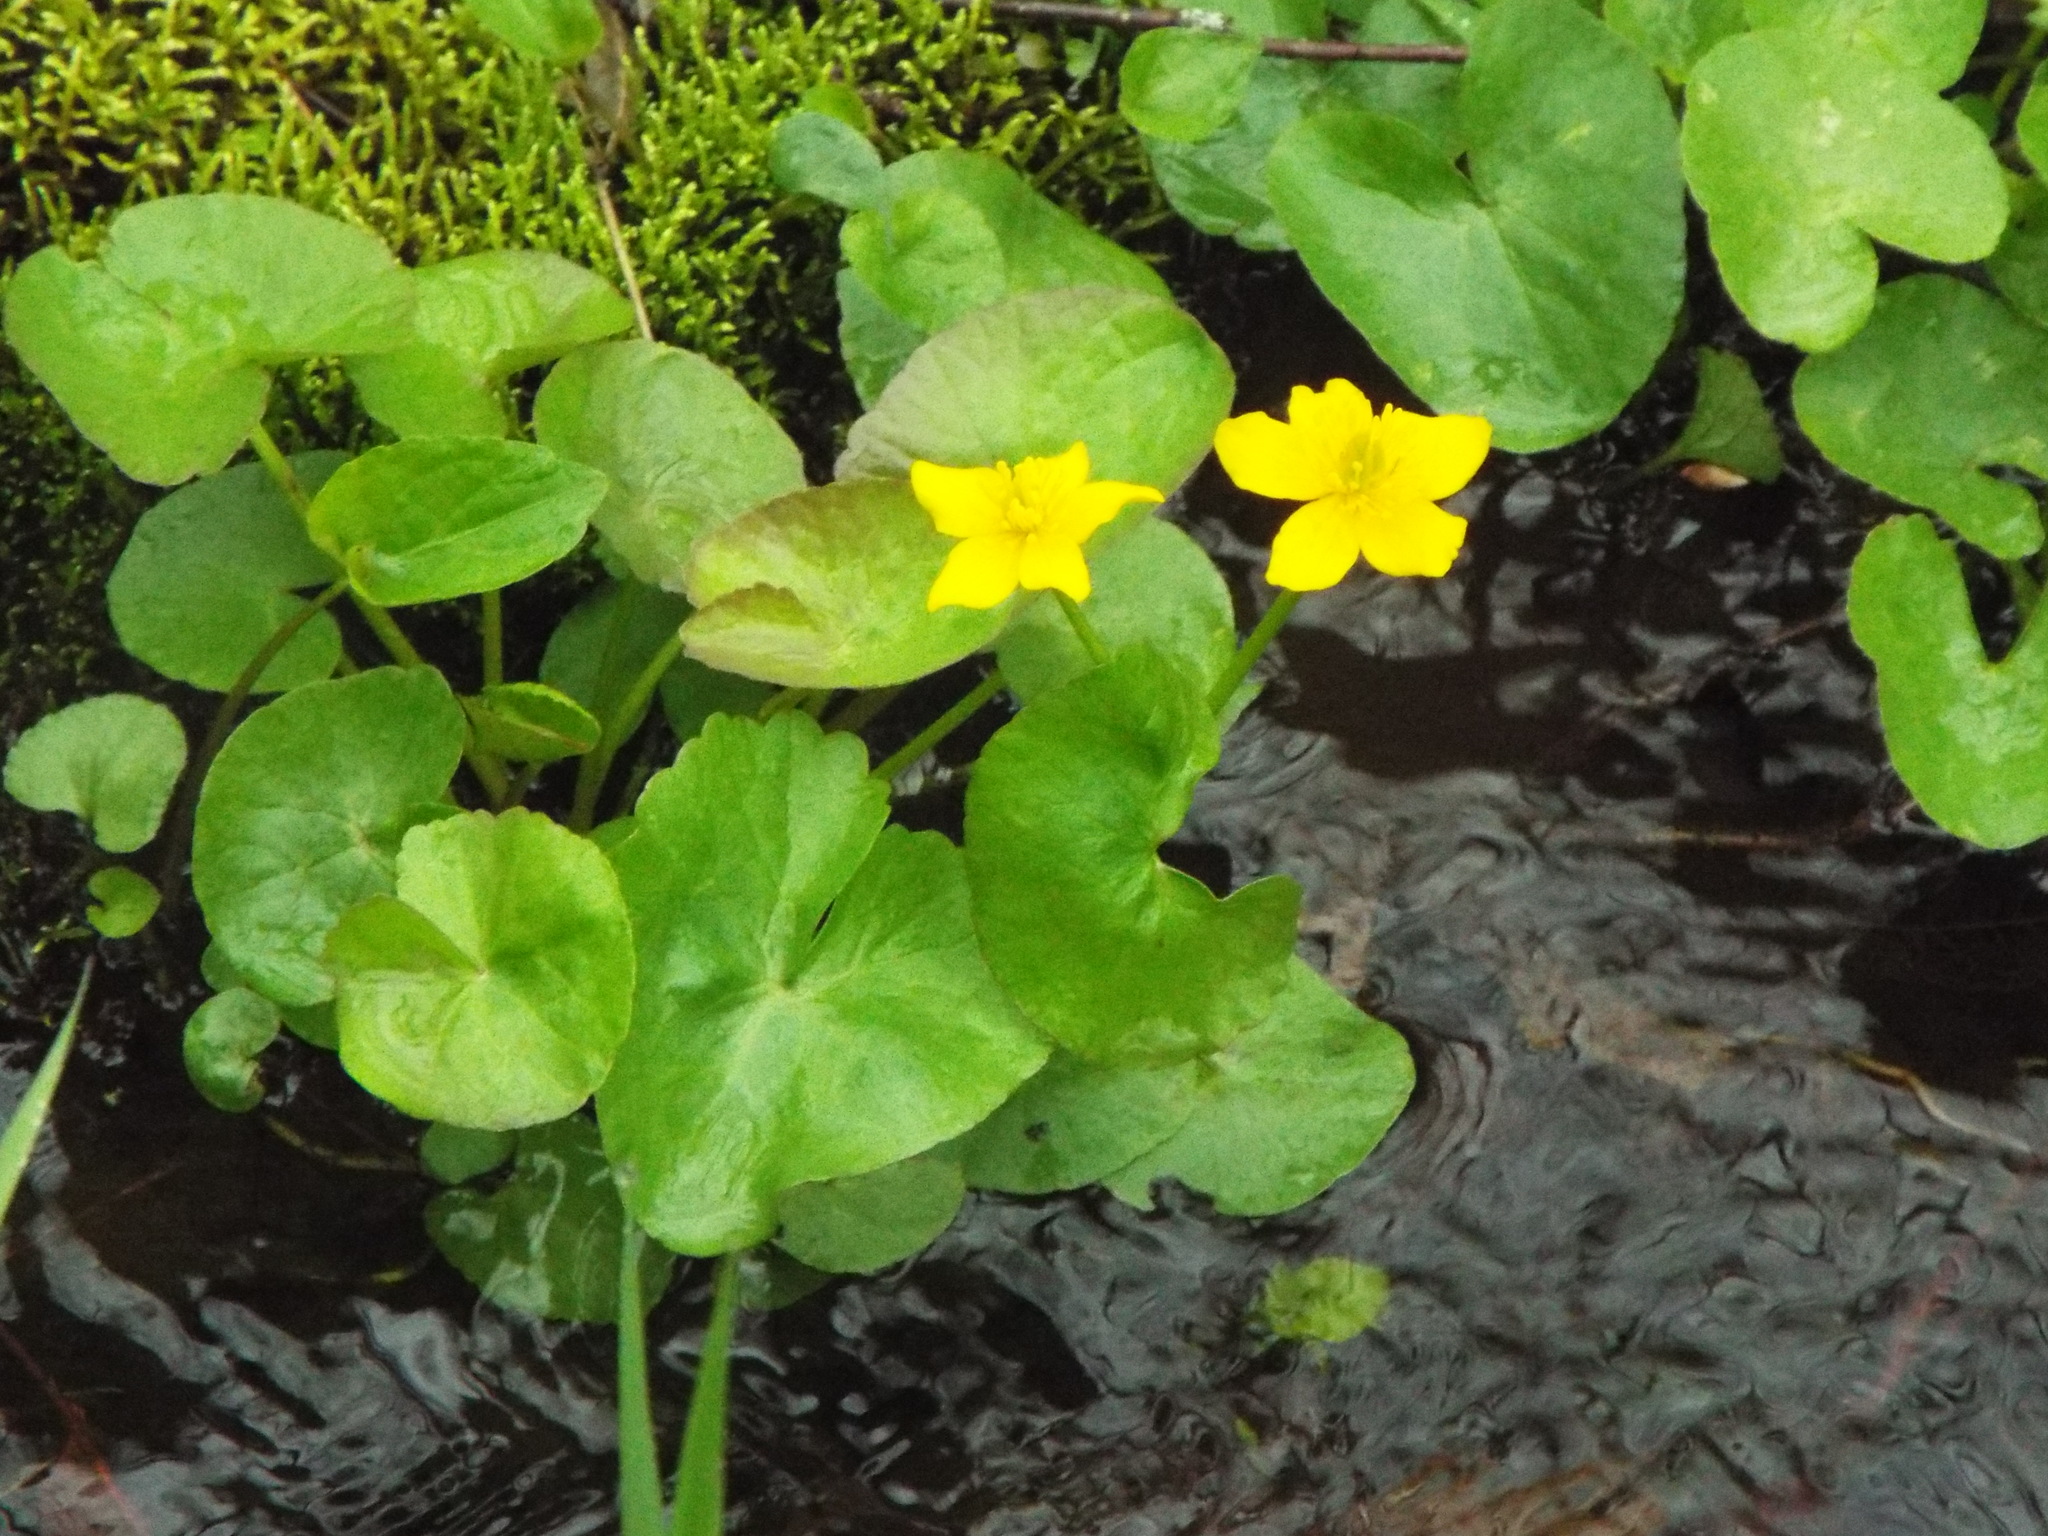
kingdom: Plantae
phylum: Tracheophyta
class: Magnoliopsida
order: Ranunculales
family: Ranunculaceae
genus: Caltha
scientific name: Caltha palustris
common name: Marsh marigold
